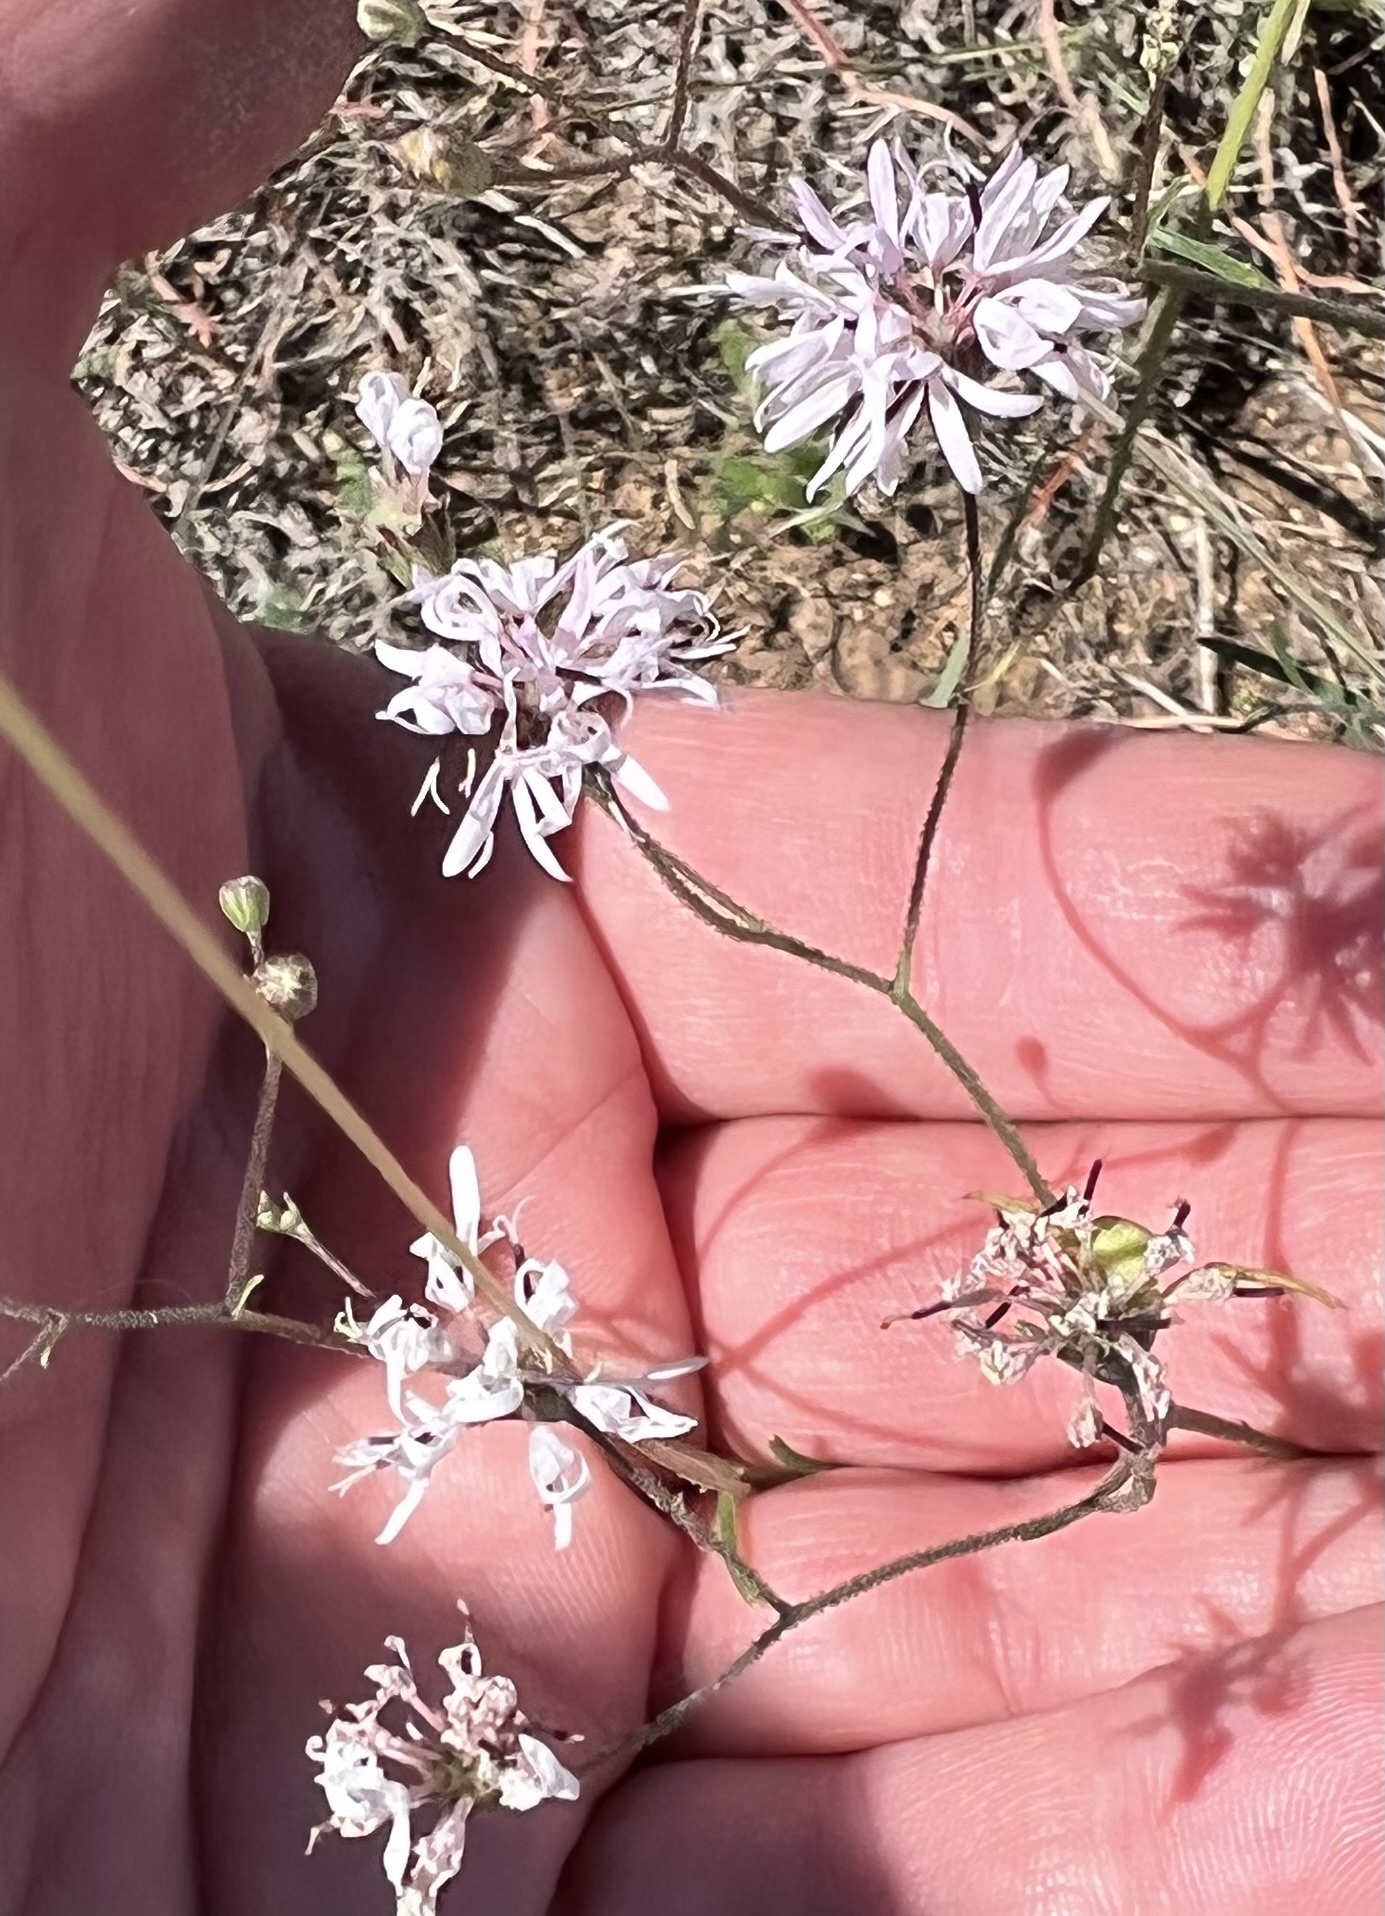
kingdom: Plantae
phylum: Tracheophyta
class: Magnoliopsida
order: Asterales
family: Asteraceae
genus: Palafoxia
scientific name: Palafoxia callosa
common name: Small palafox
